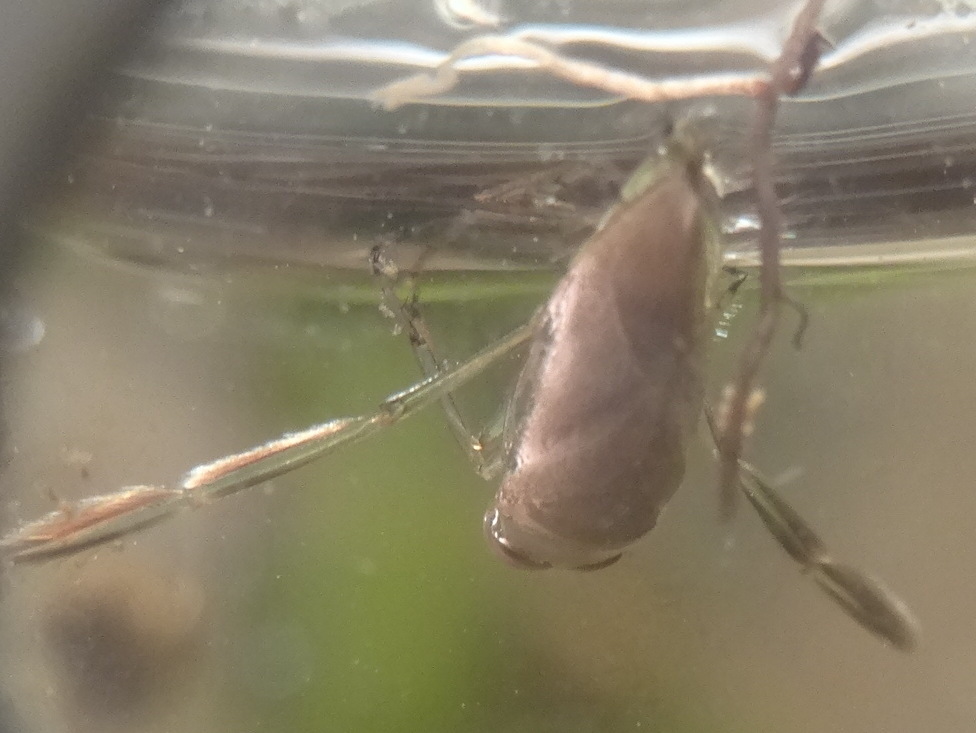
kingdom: Animalia
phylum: Arthropoda
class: Insecta
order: Hemiptera
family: Notonectidae
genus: Notonecta
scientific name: Notonecta
